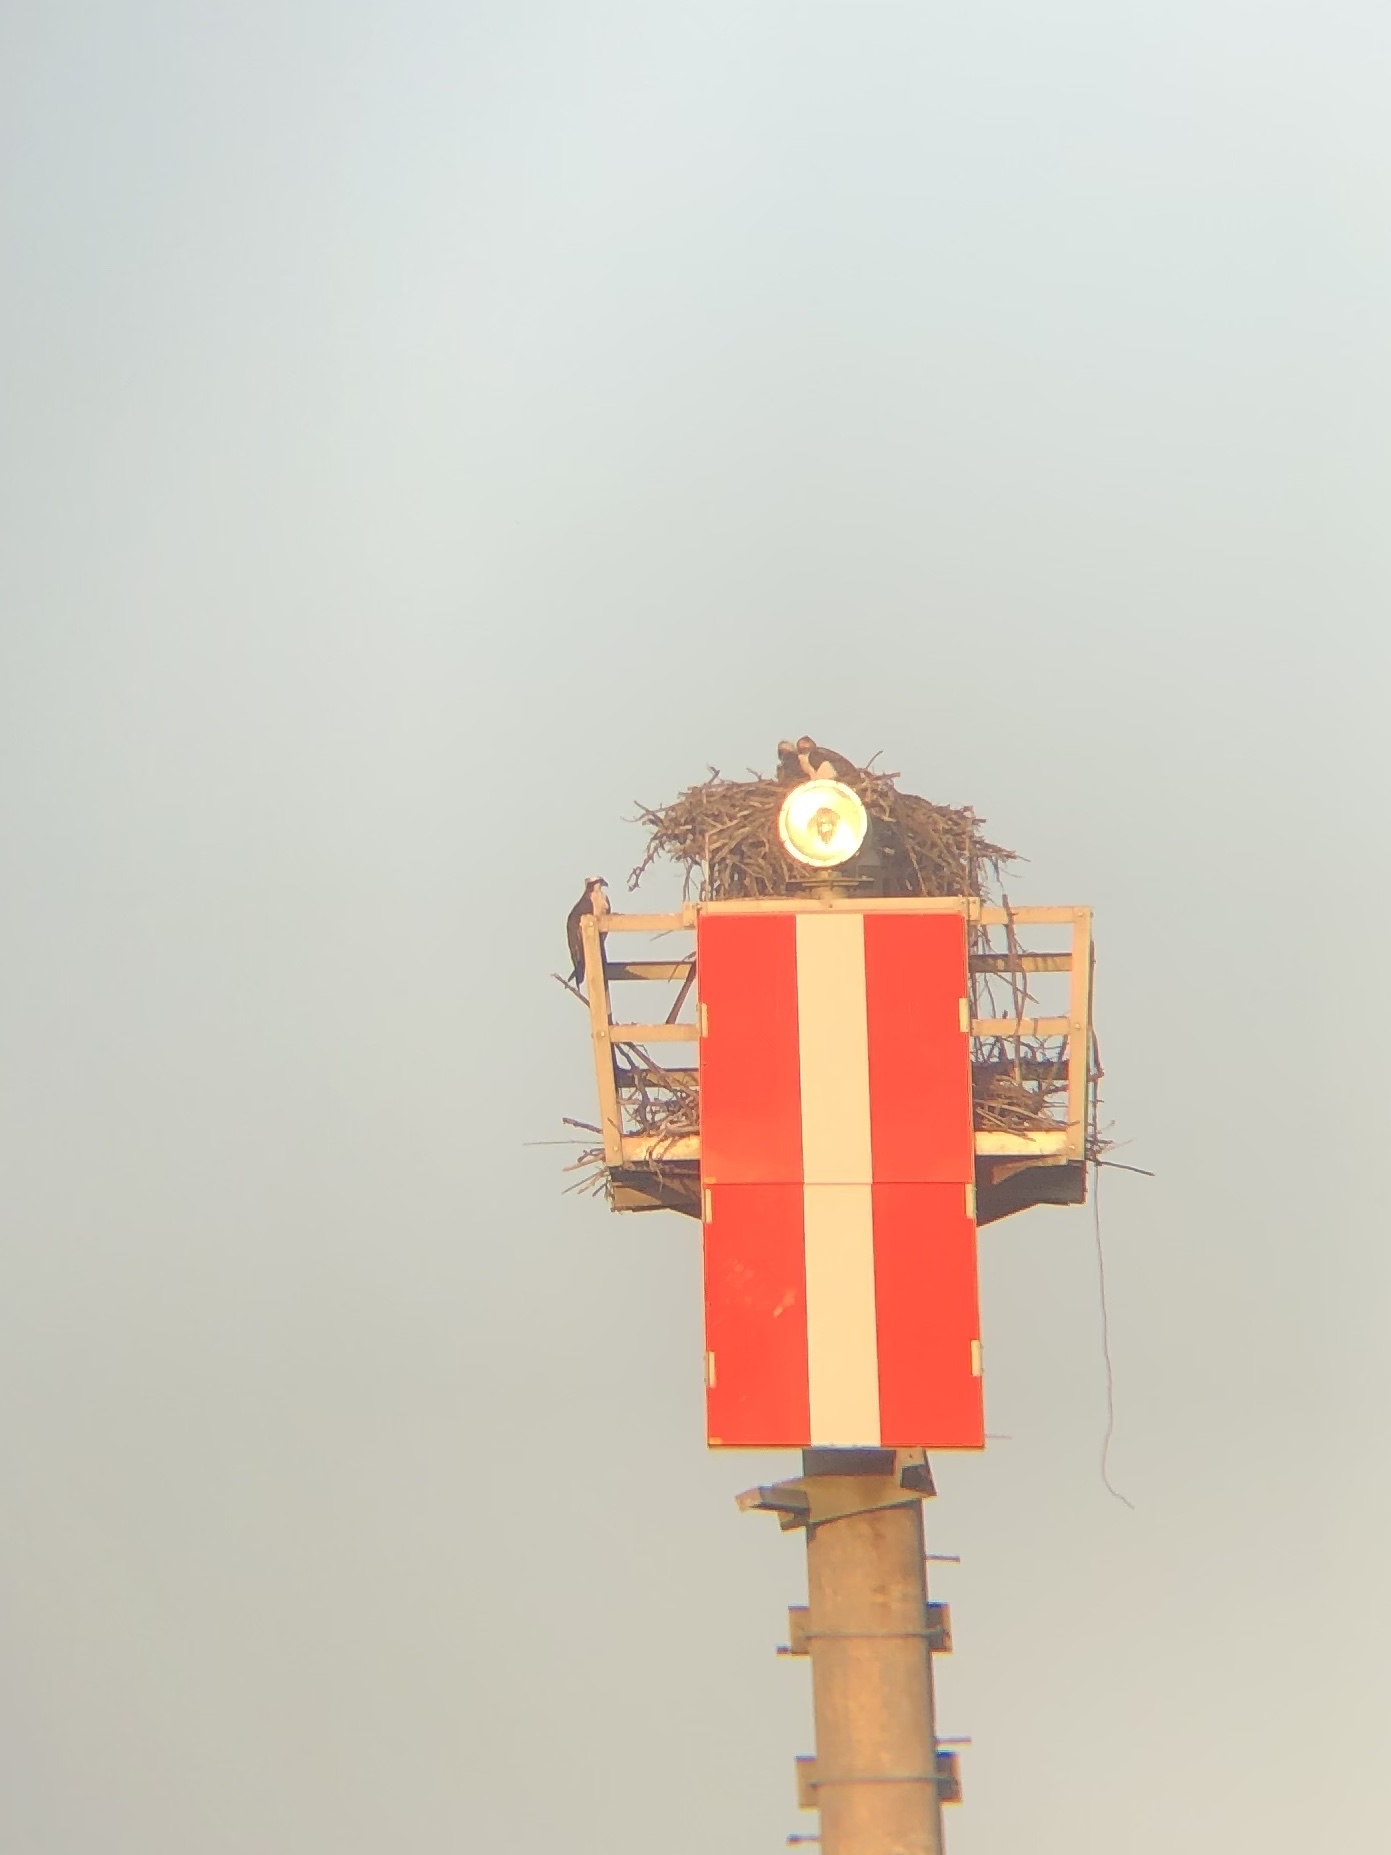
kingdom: Animalia
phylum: Chordata
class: Aves
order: Accipitriformes
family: Pandionidae
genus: Pandion
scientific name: Pandion haliaetus
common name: Osprey
